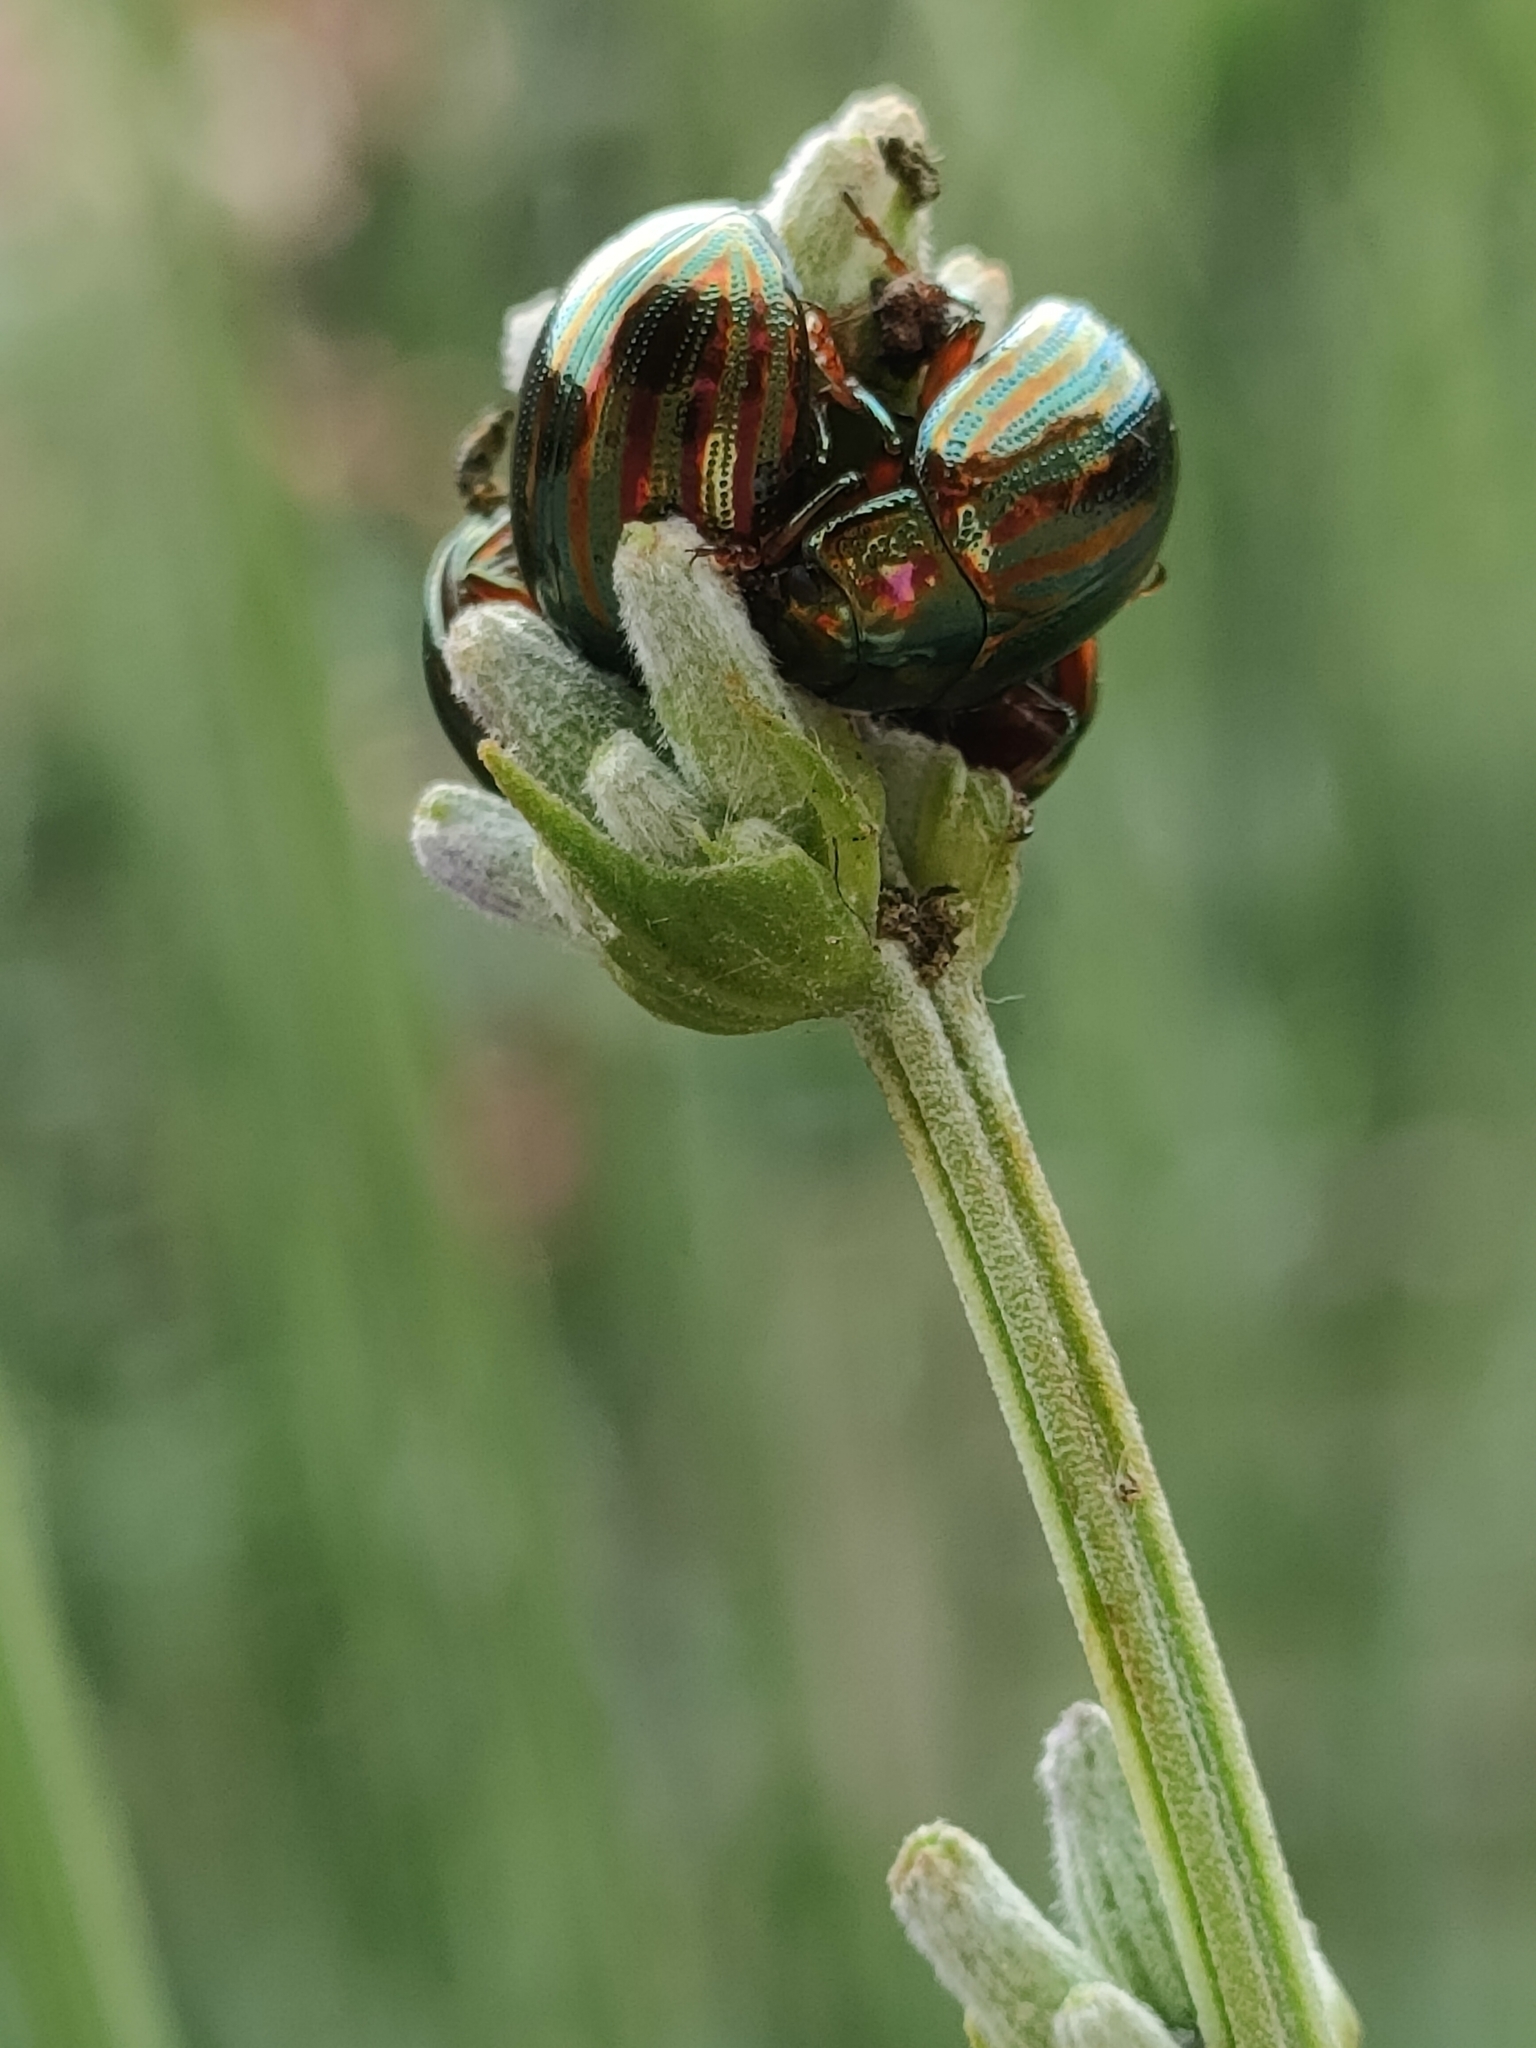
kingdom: Animalia
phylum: Arthropoda
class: Insecta
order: Coleoptera
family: Chrysomelidae
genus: Chrysolina
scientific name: Chrysolina americana
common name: Rosemary beetle
